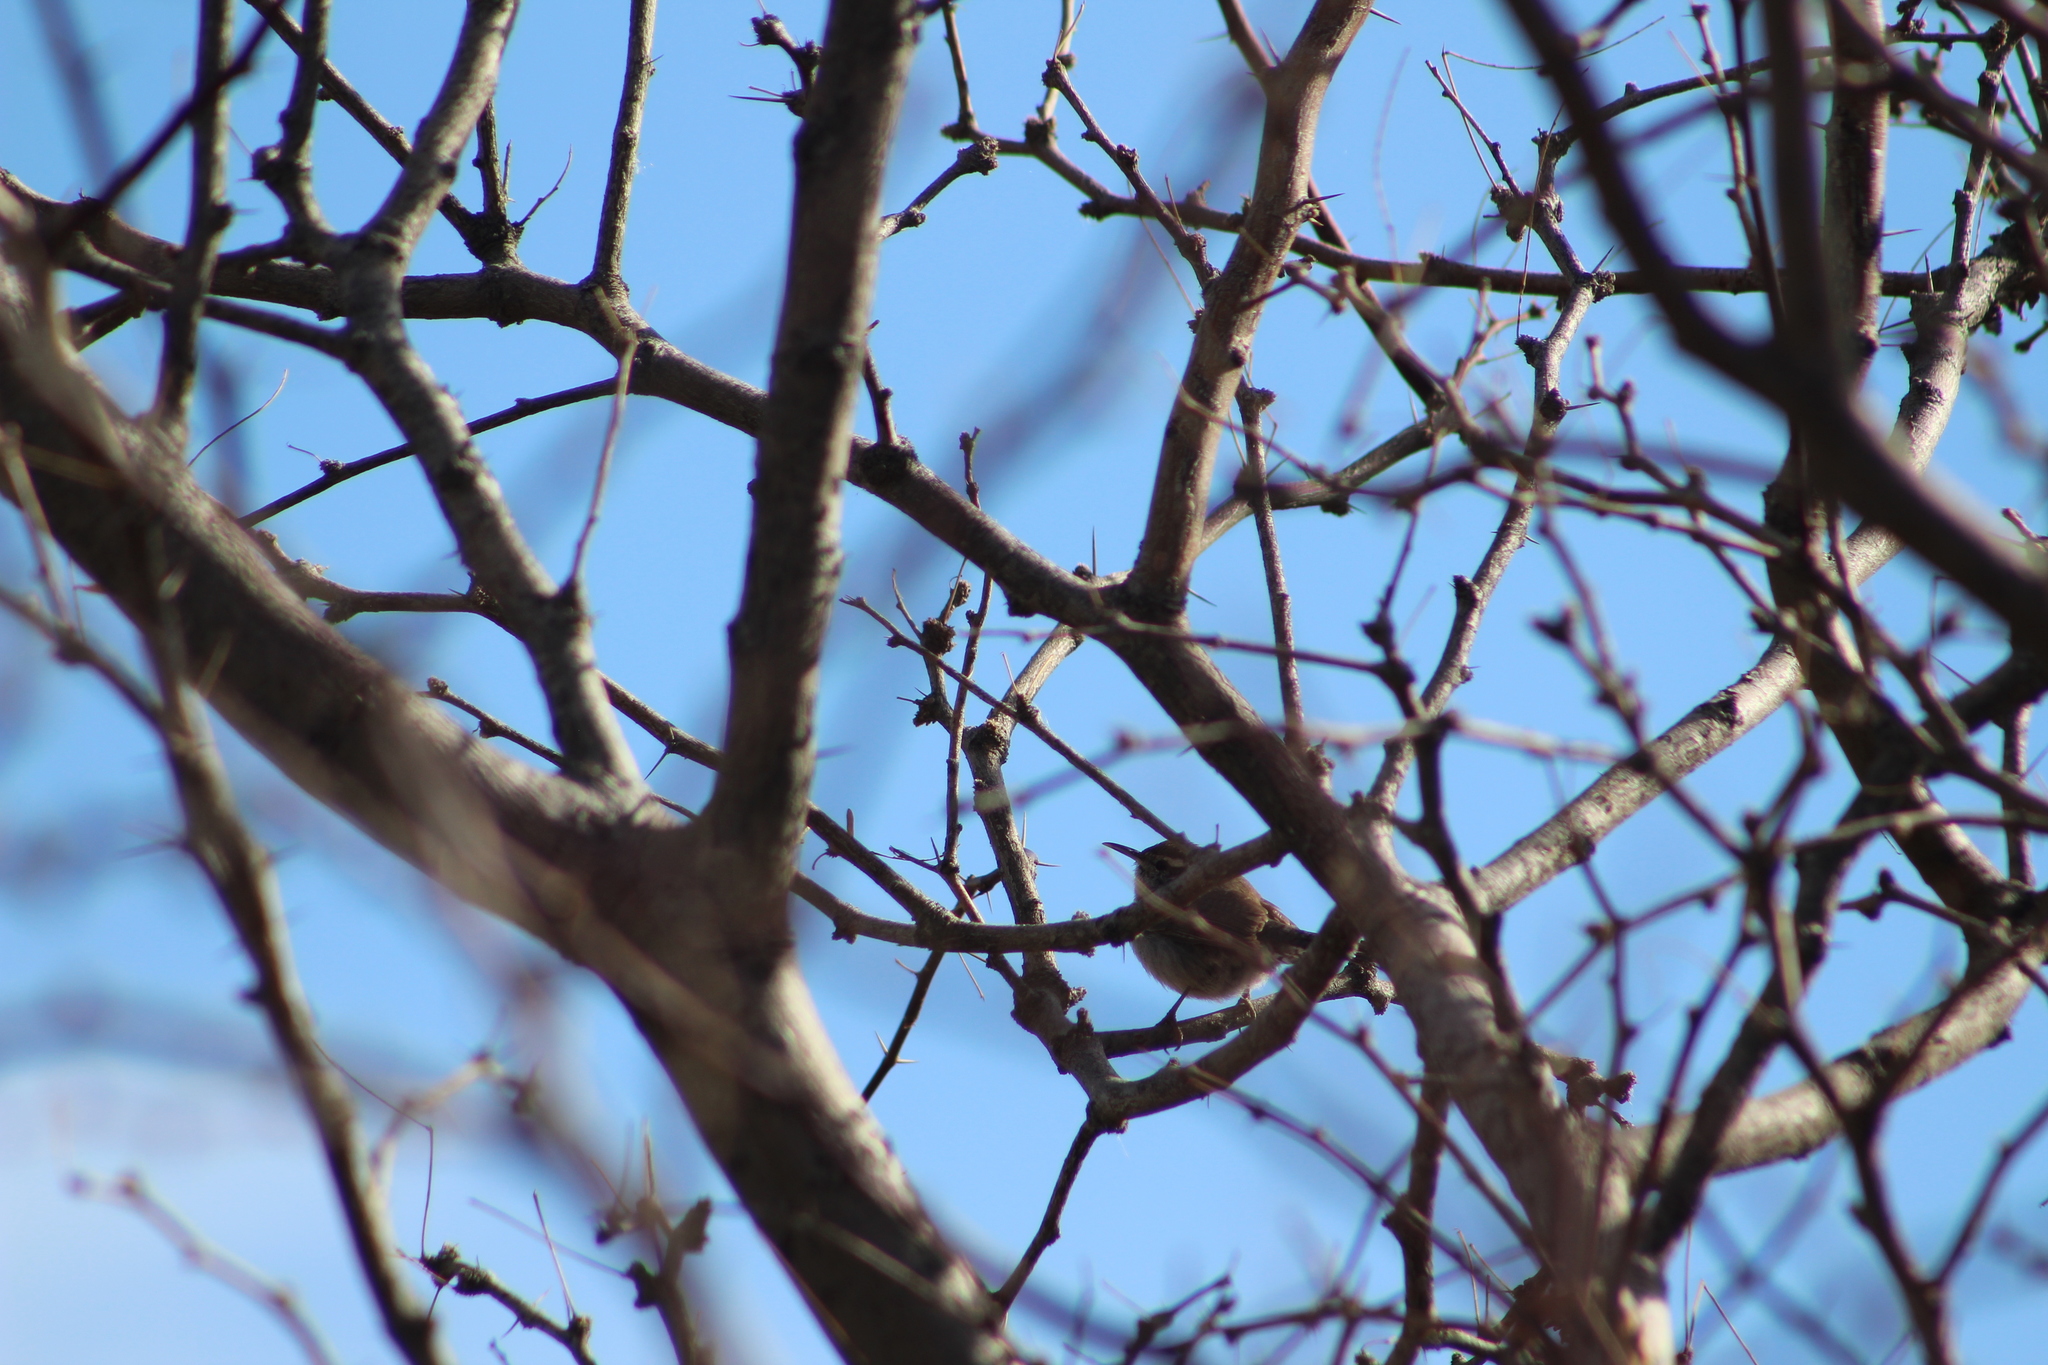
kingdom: Animalia
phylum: Chordata
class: Aves
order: Passeriformes
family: Troglodytidae
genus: Thryomanes
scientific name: Thryomanes bewickii
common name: Bewick's wren
